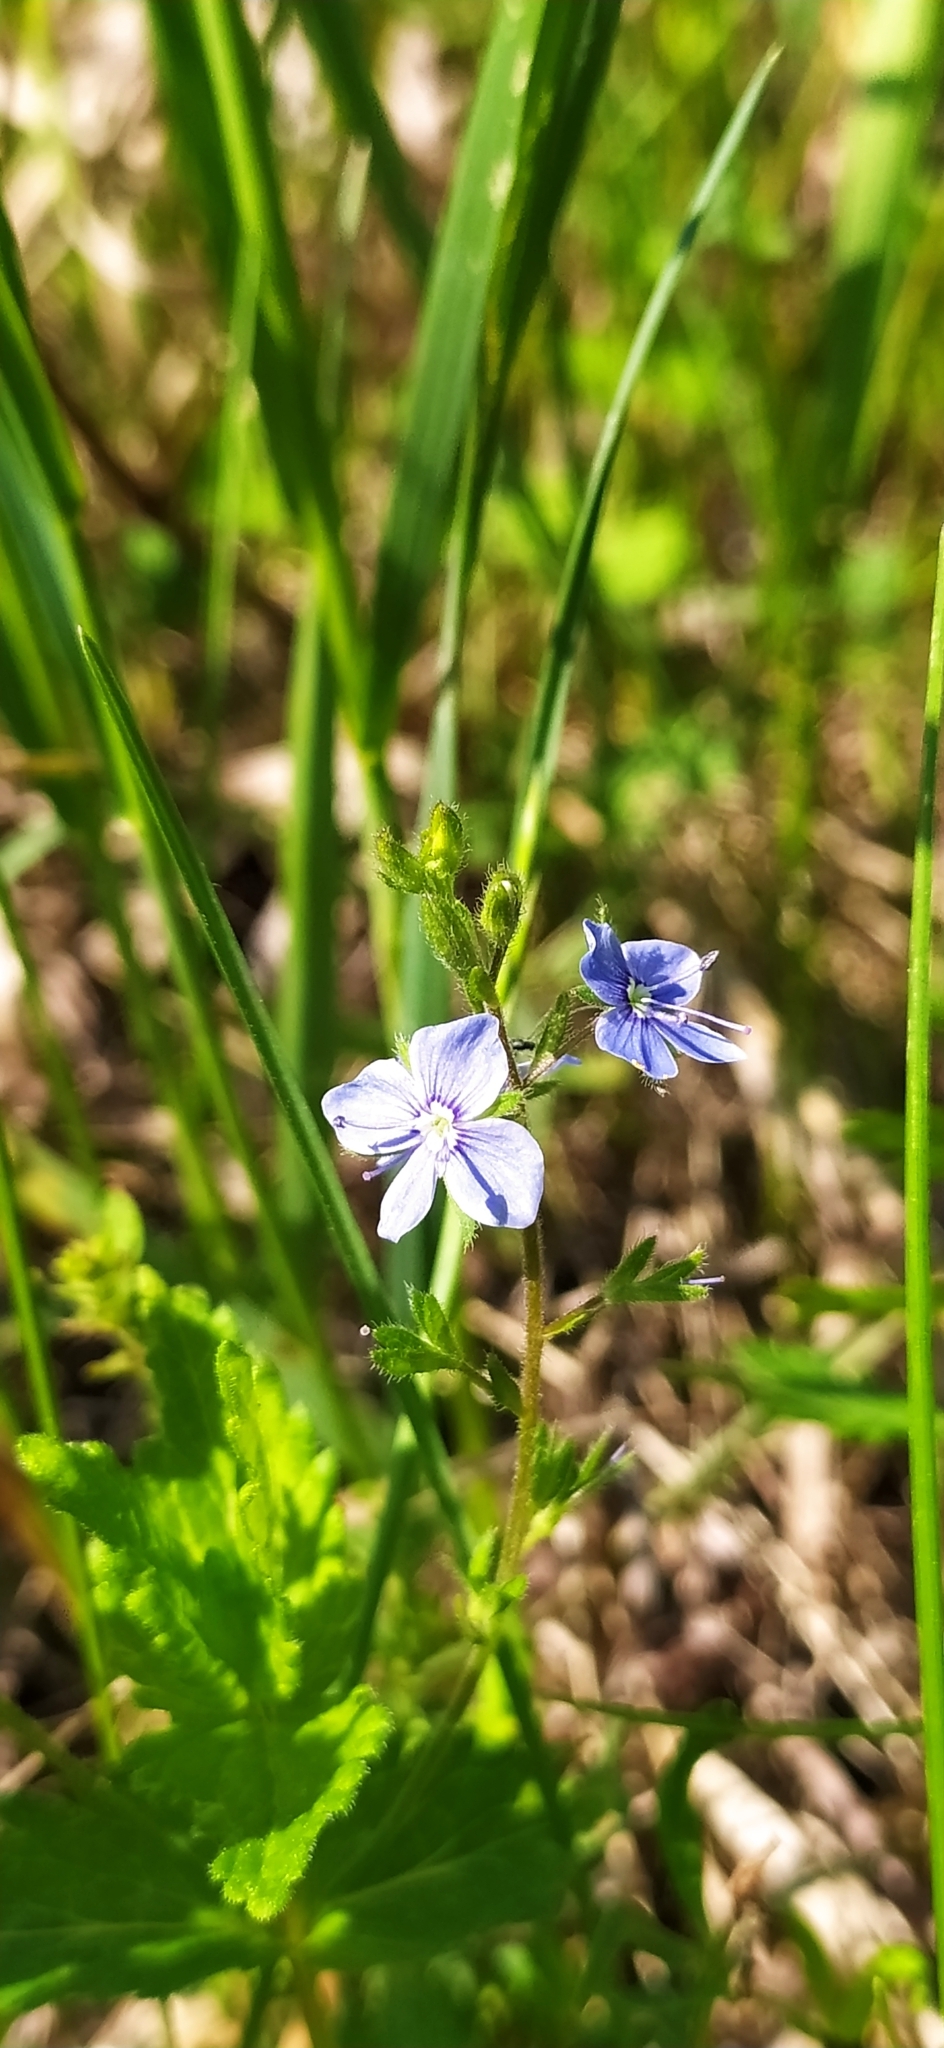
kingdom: Plantae
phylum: Tracheophyta
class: Magnoliopsida
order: Lamiales
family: Plantaginaceae
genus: Veronica
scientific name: Veronica chamaedrys
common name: Germander speedwell
